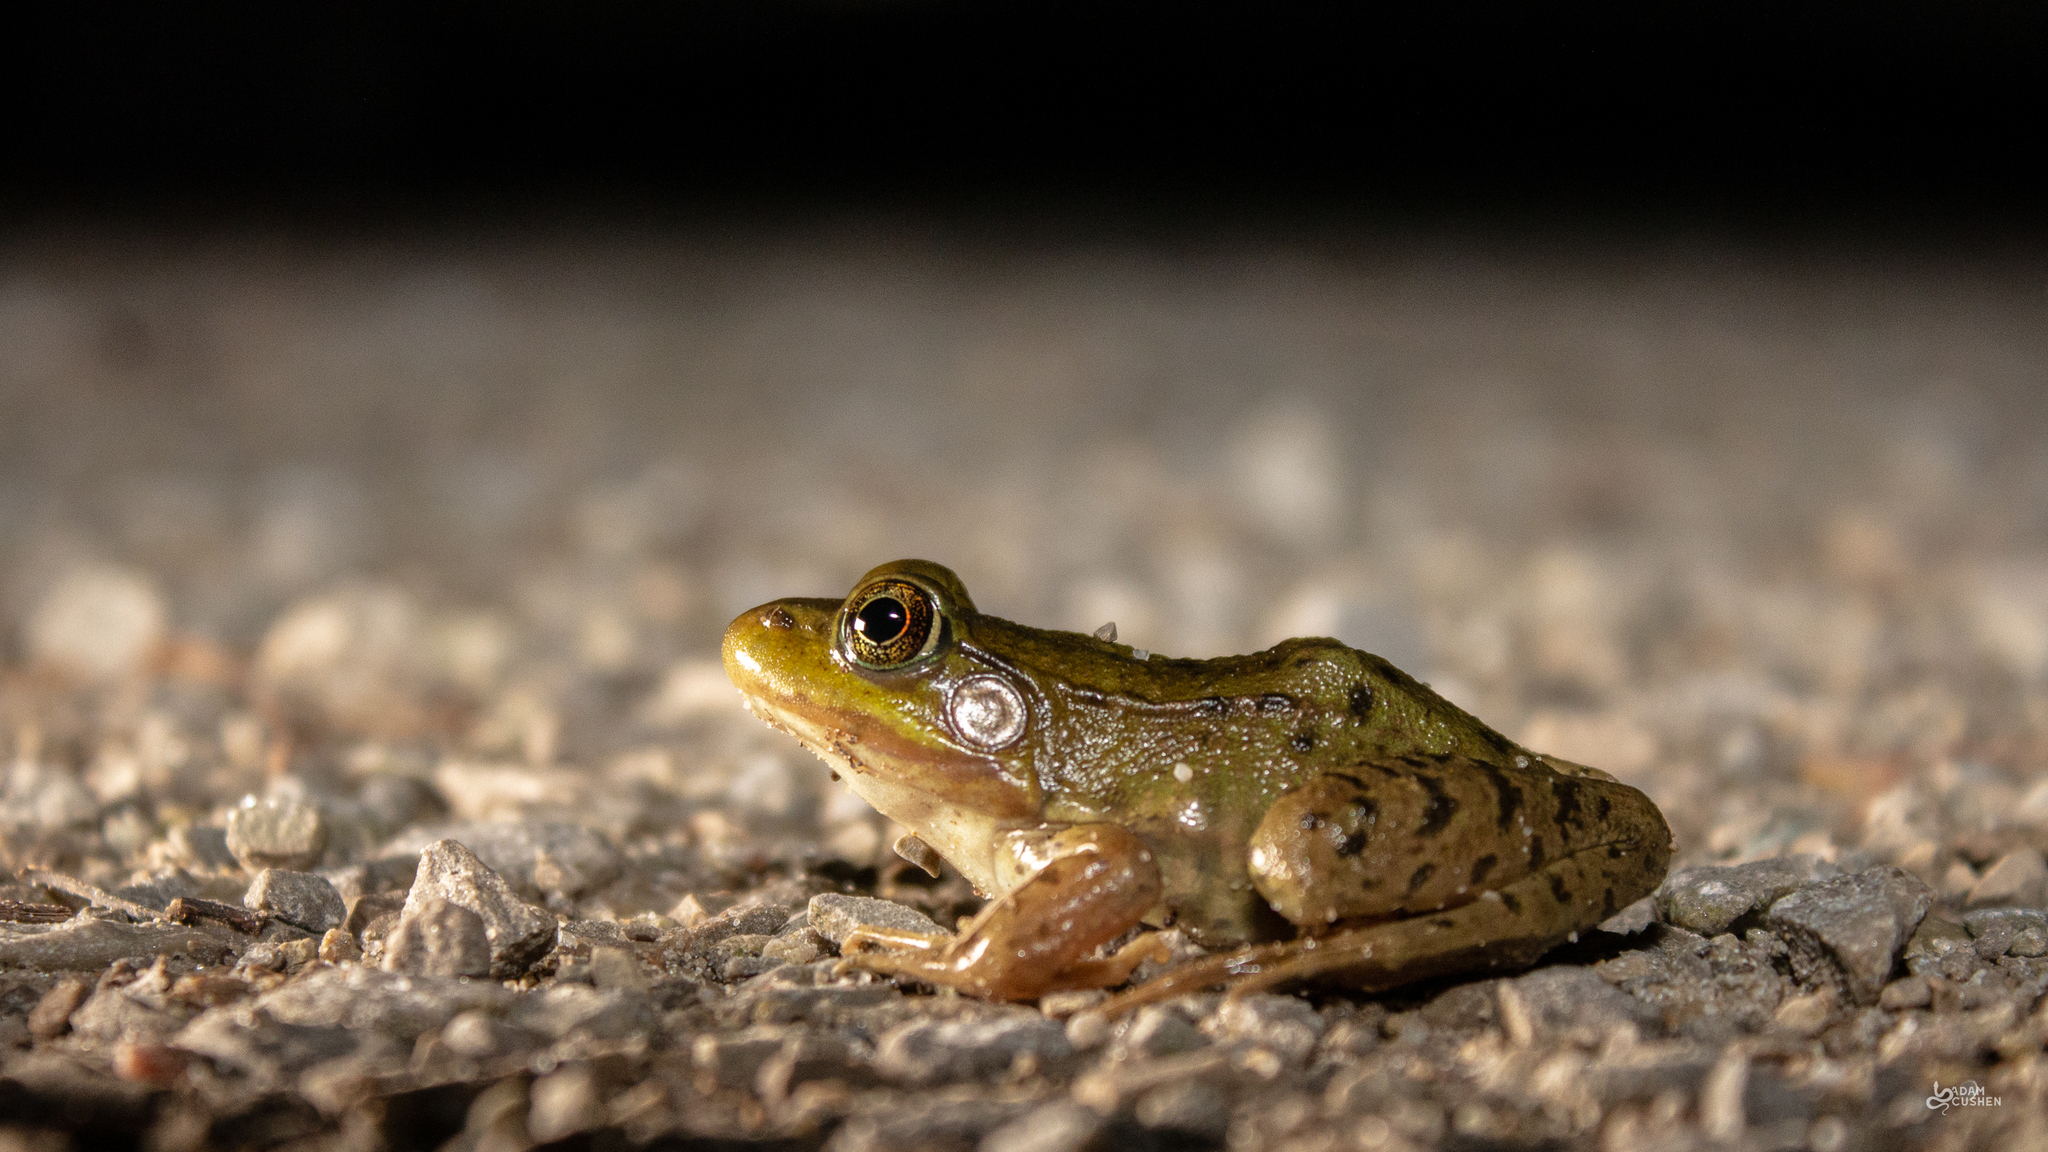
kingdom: Animalia
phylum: Chordata
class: Amphibia
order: Anura
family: Ranidae
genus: Lithobates
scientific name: Lithobates clamitans
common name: Green frog
